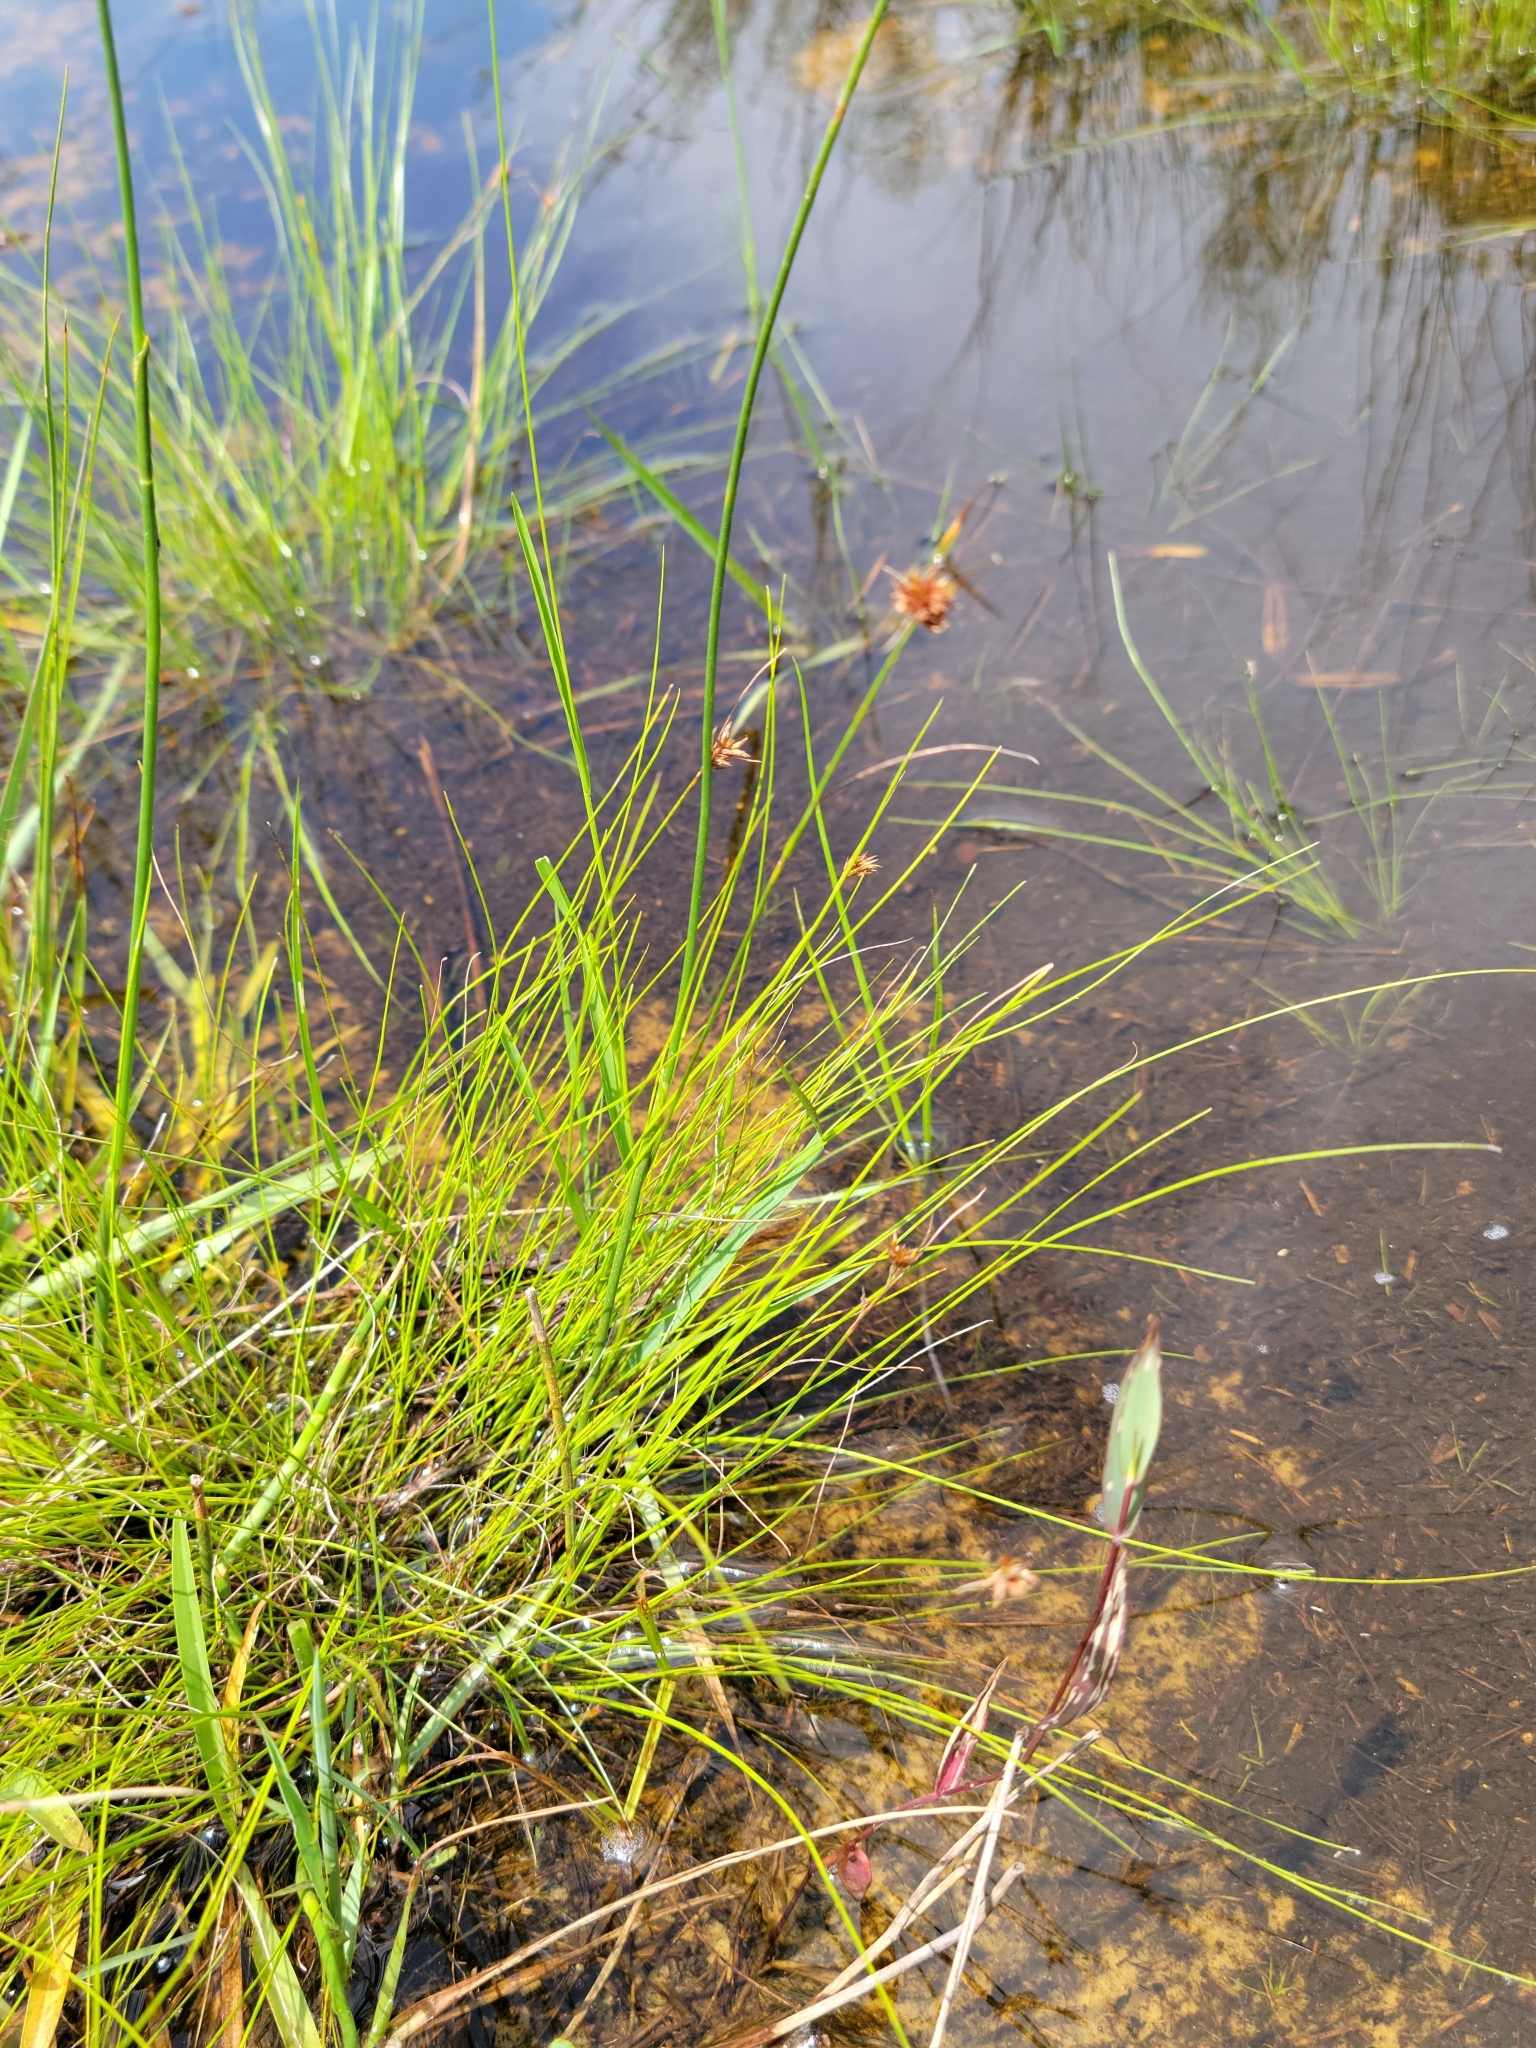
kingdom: Plantae
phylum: Tracheophyta
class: Liliopsida
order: Poales
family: Cyperaceae
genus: Rhynchospora
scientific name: Rhynchospora filifolia
